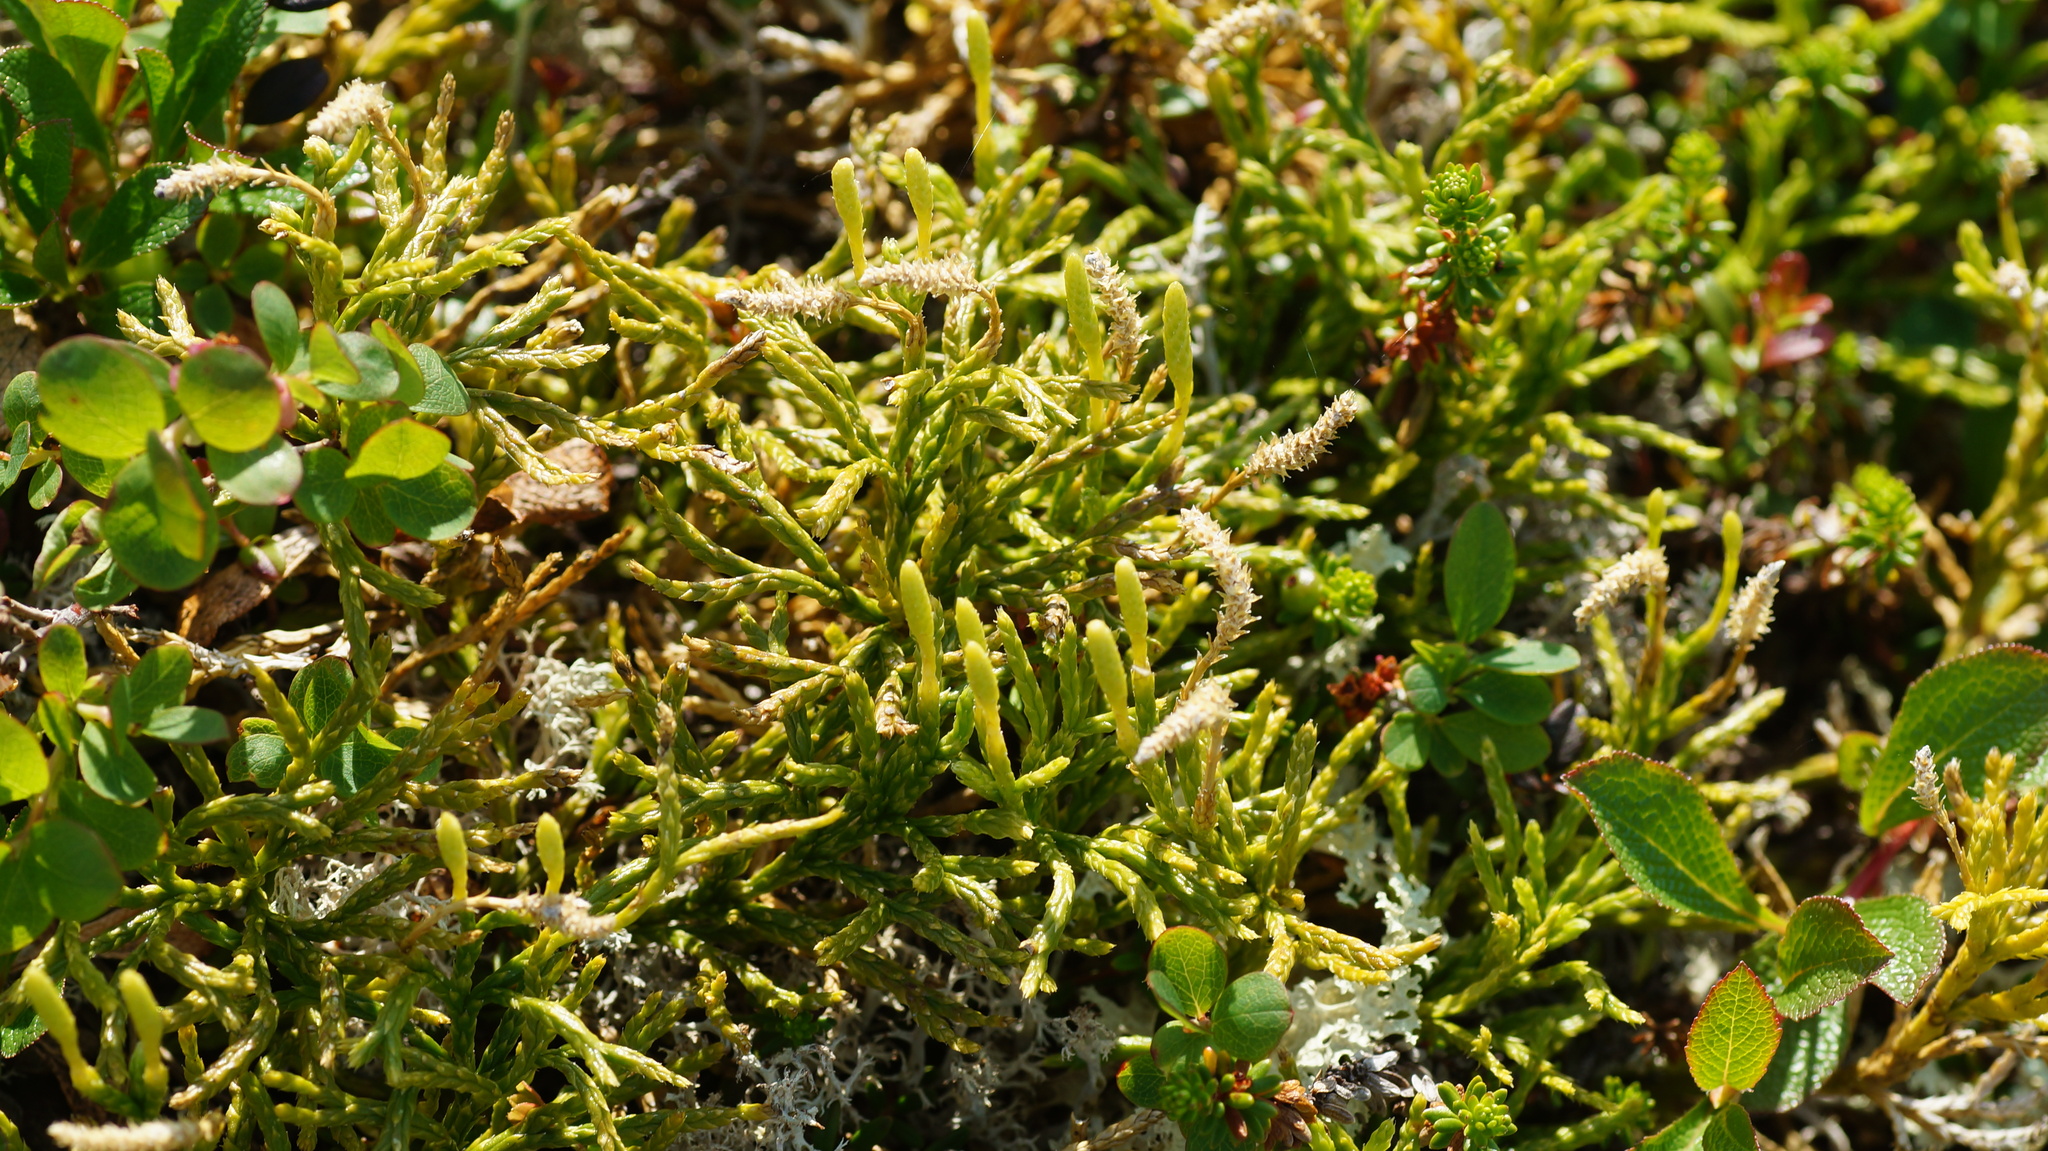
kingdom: Plantae
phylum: Tracheophyta
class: Lycopodiopsida
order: Lycopodiales
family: Lycopodiaceae
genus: Diphasiastrum
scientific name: Diphasiastrum complanatum
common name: Northern running-pine
